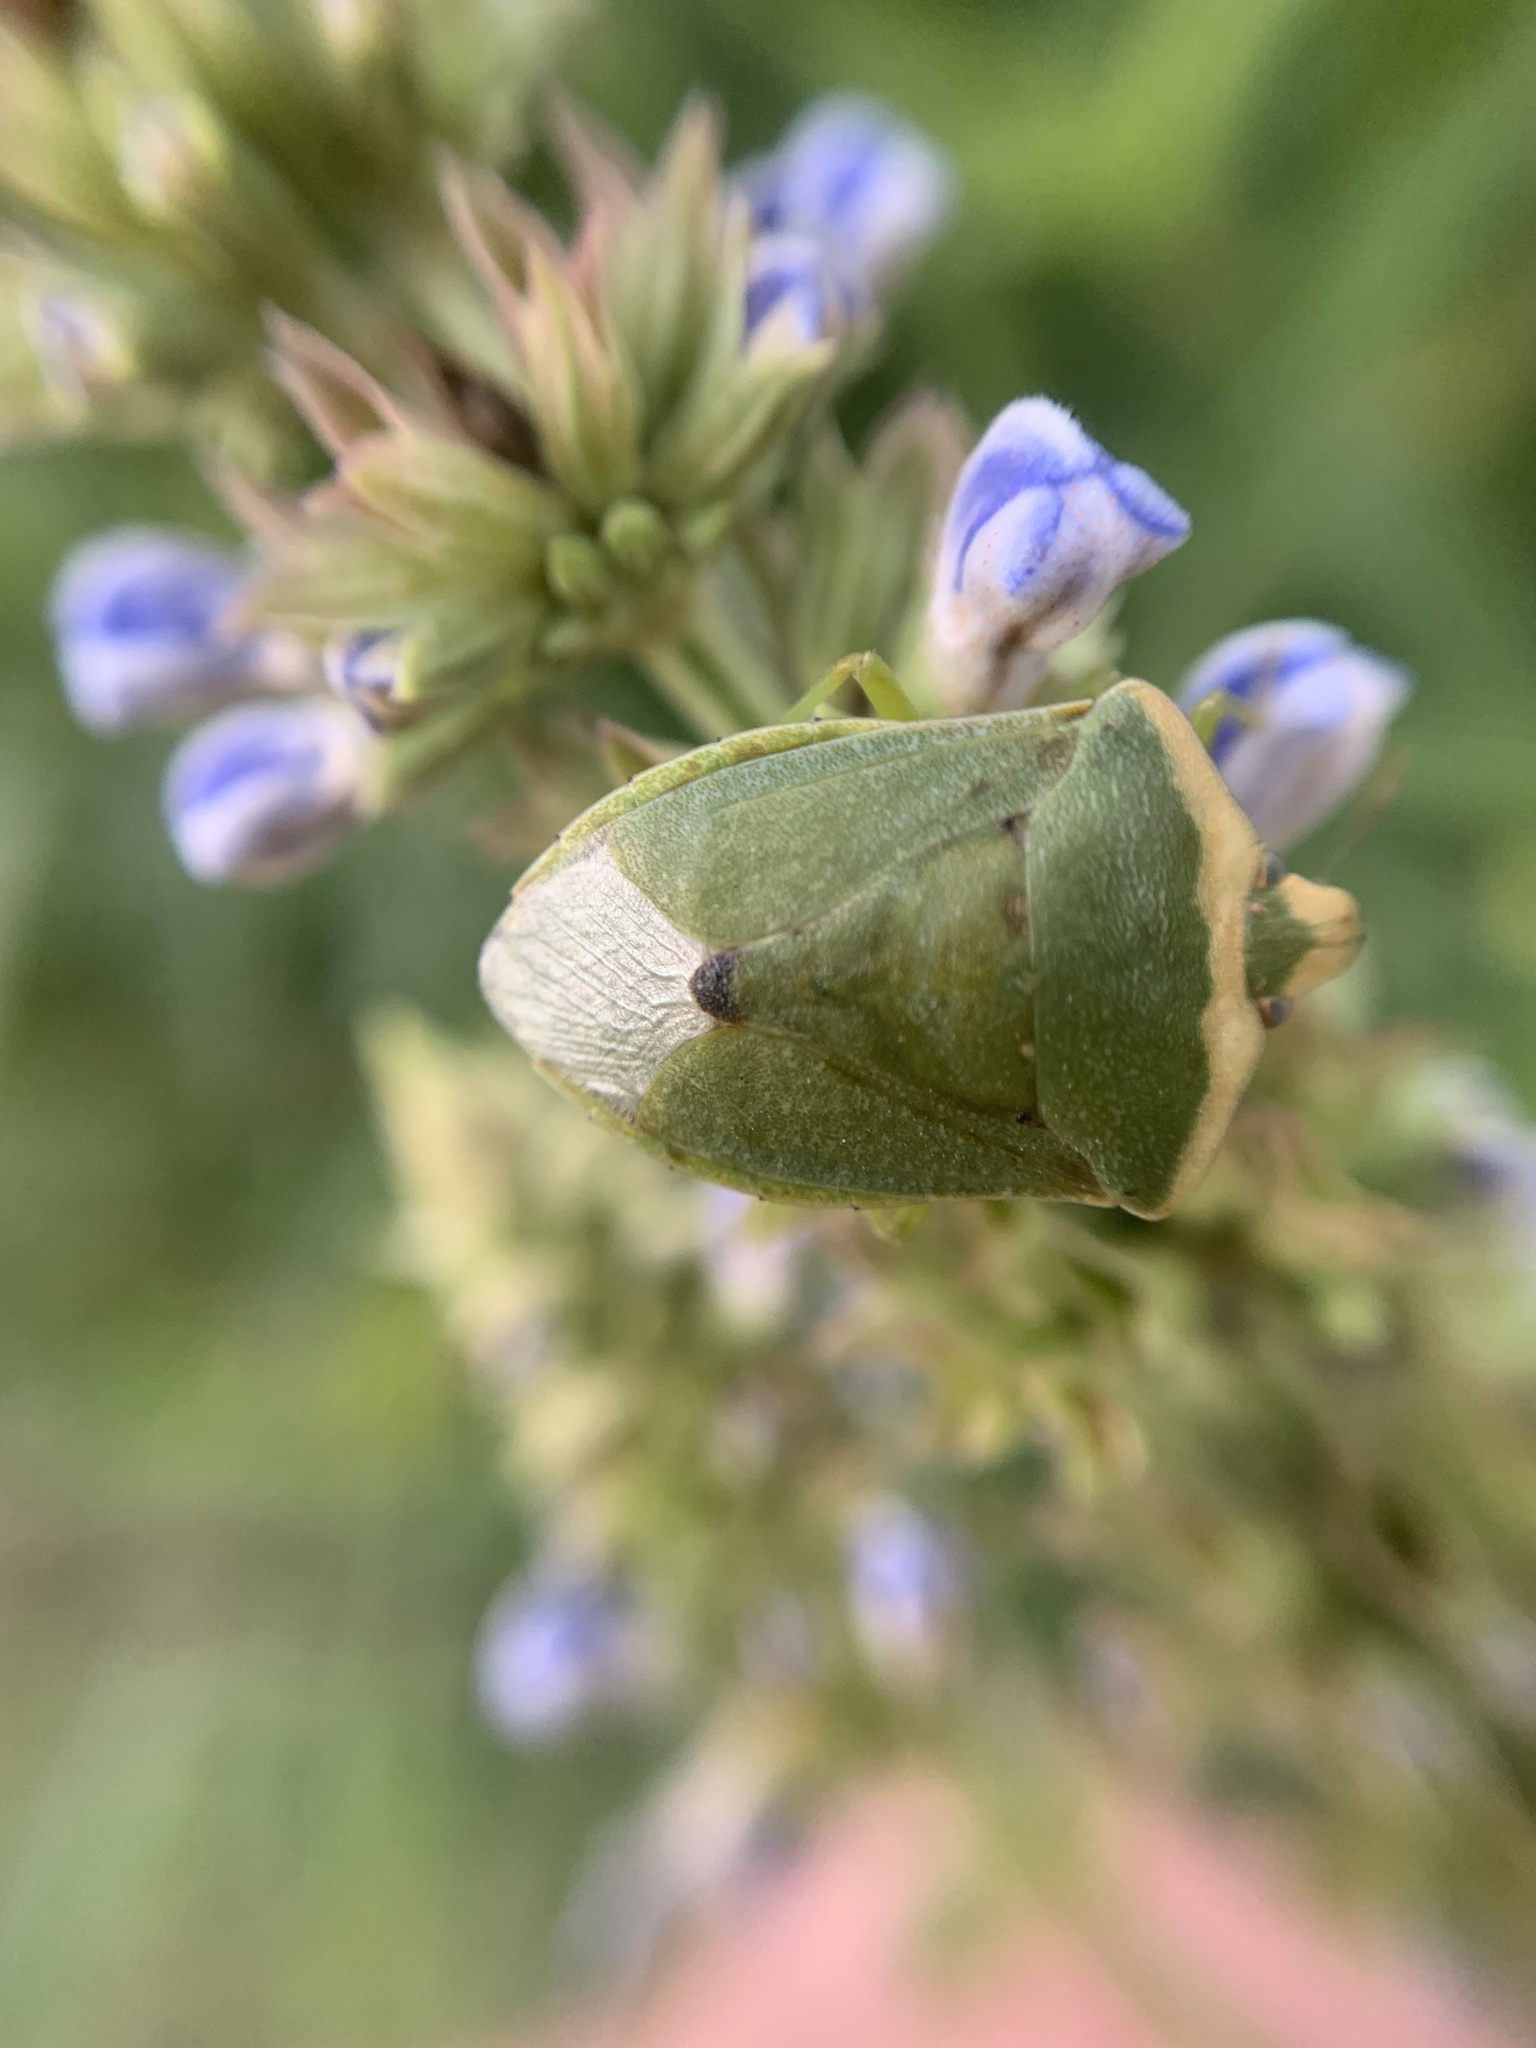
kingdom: Animalia
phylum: Arthropoda
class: Insecta
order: Hemiptera
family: Pentatomidae
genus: Nezara
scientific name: Nezara viridula
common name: Southern green stink bug
